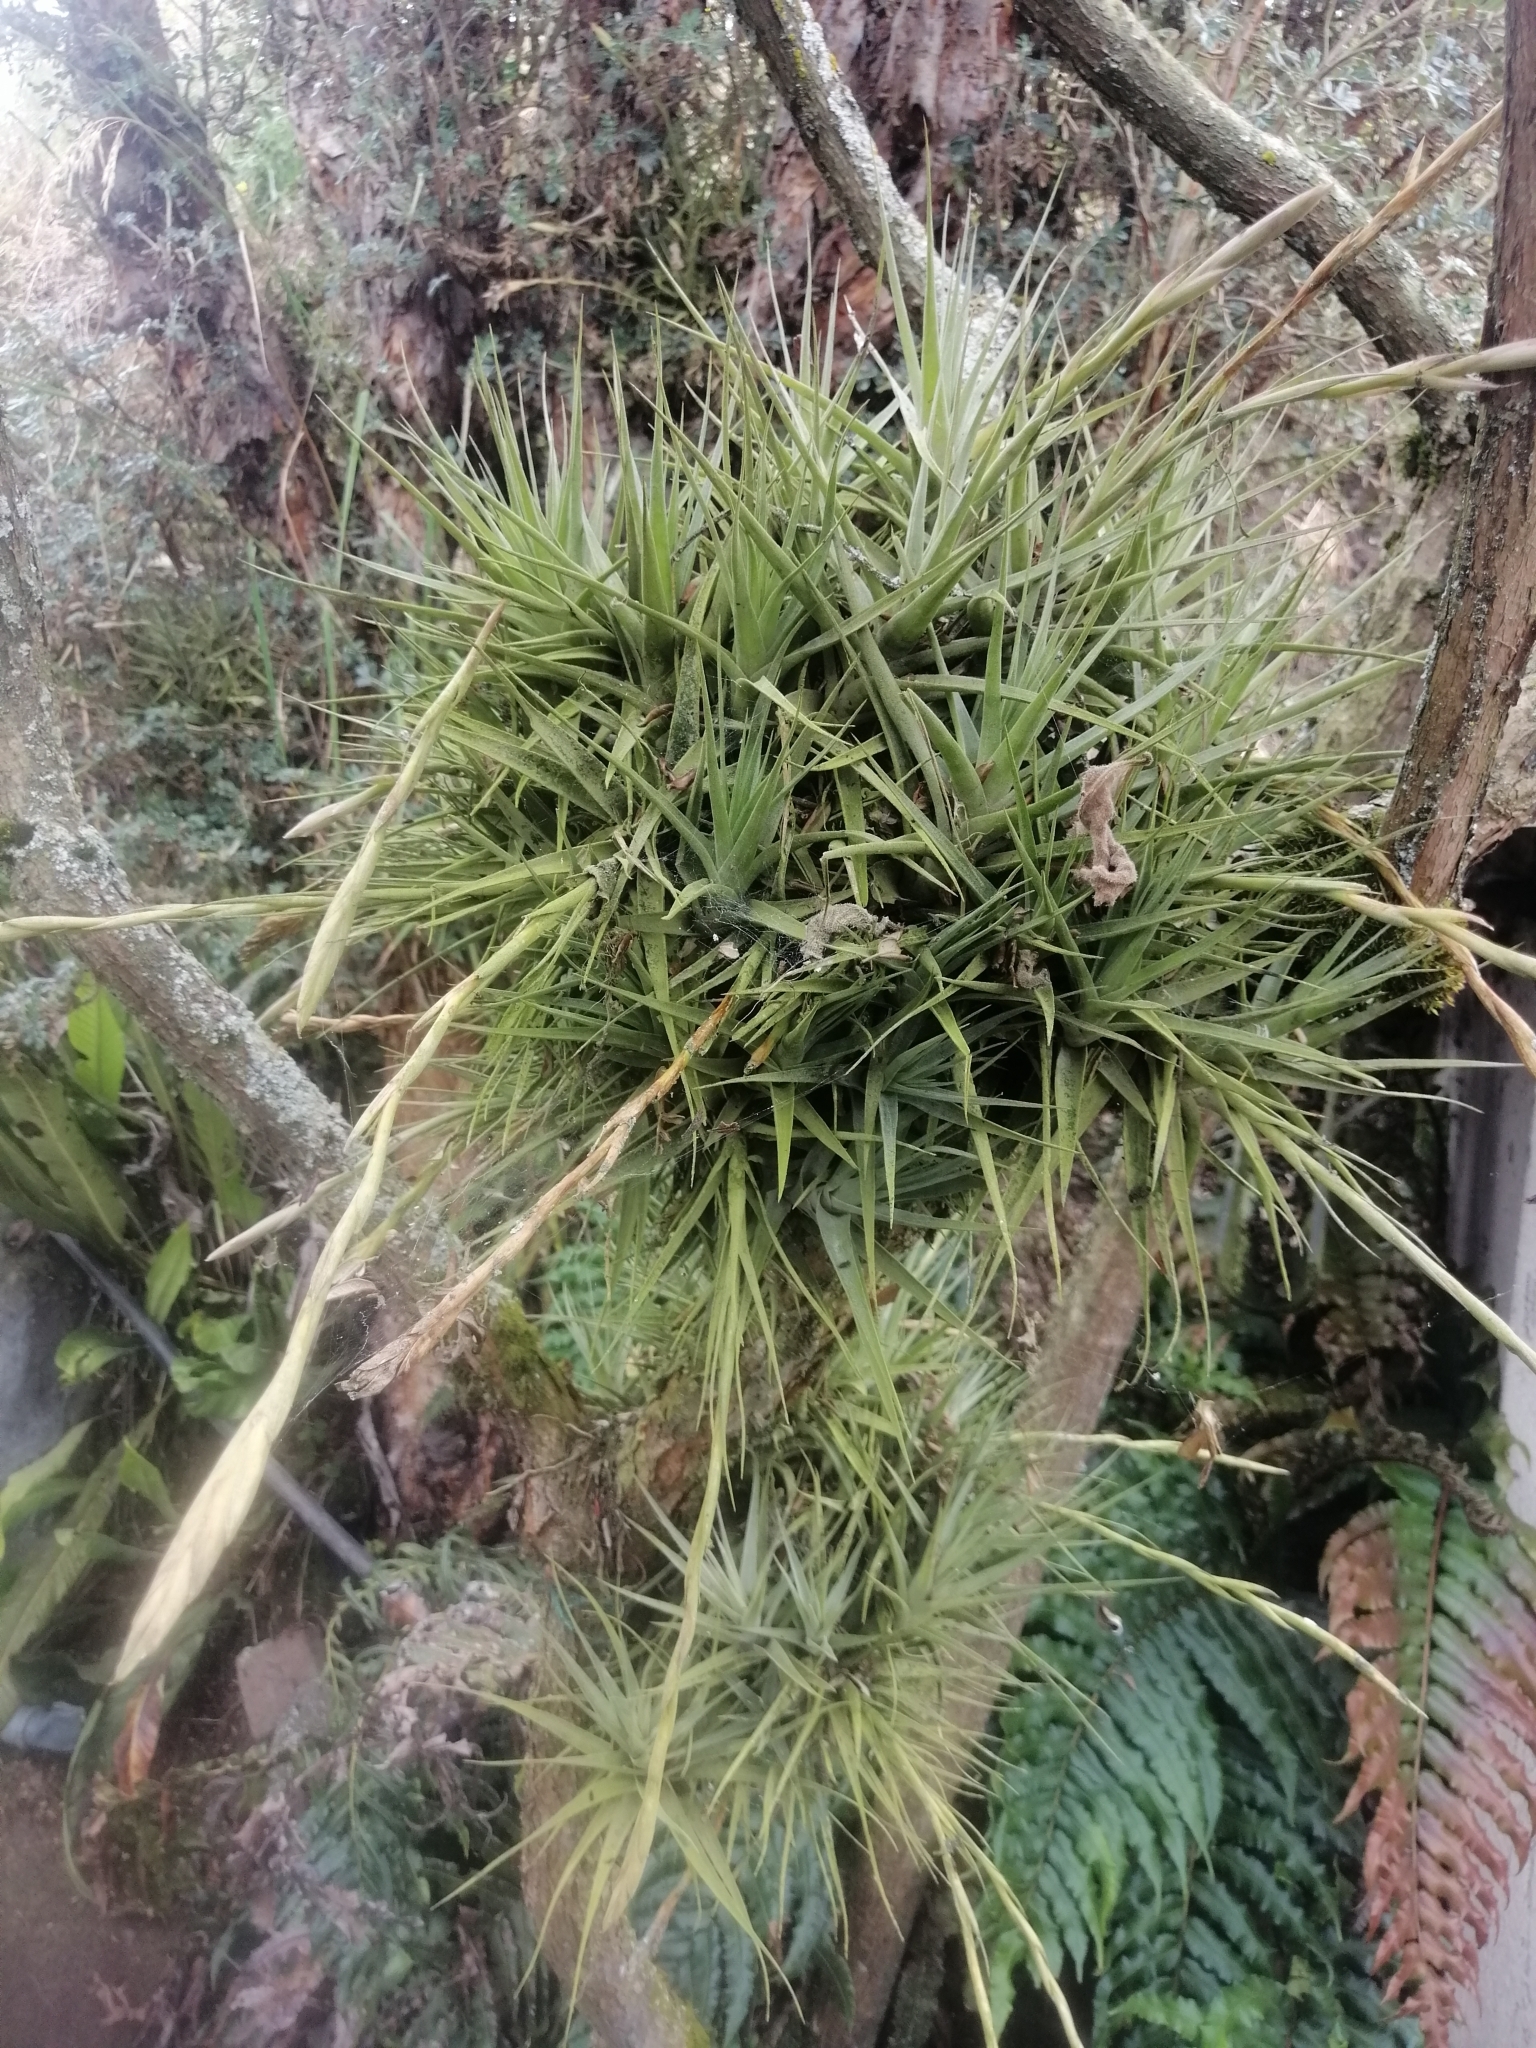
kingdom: Plantae
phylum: Tracheophyta
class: Liliopsida
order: Poales
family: Bromeliaceae
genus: Tillandsia
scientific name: Tillandsia incarnata
